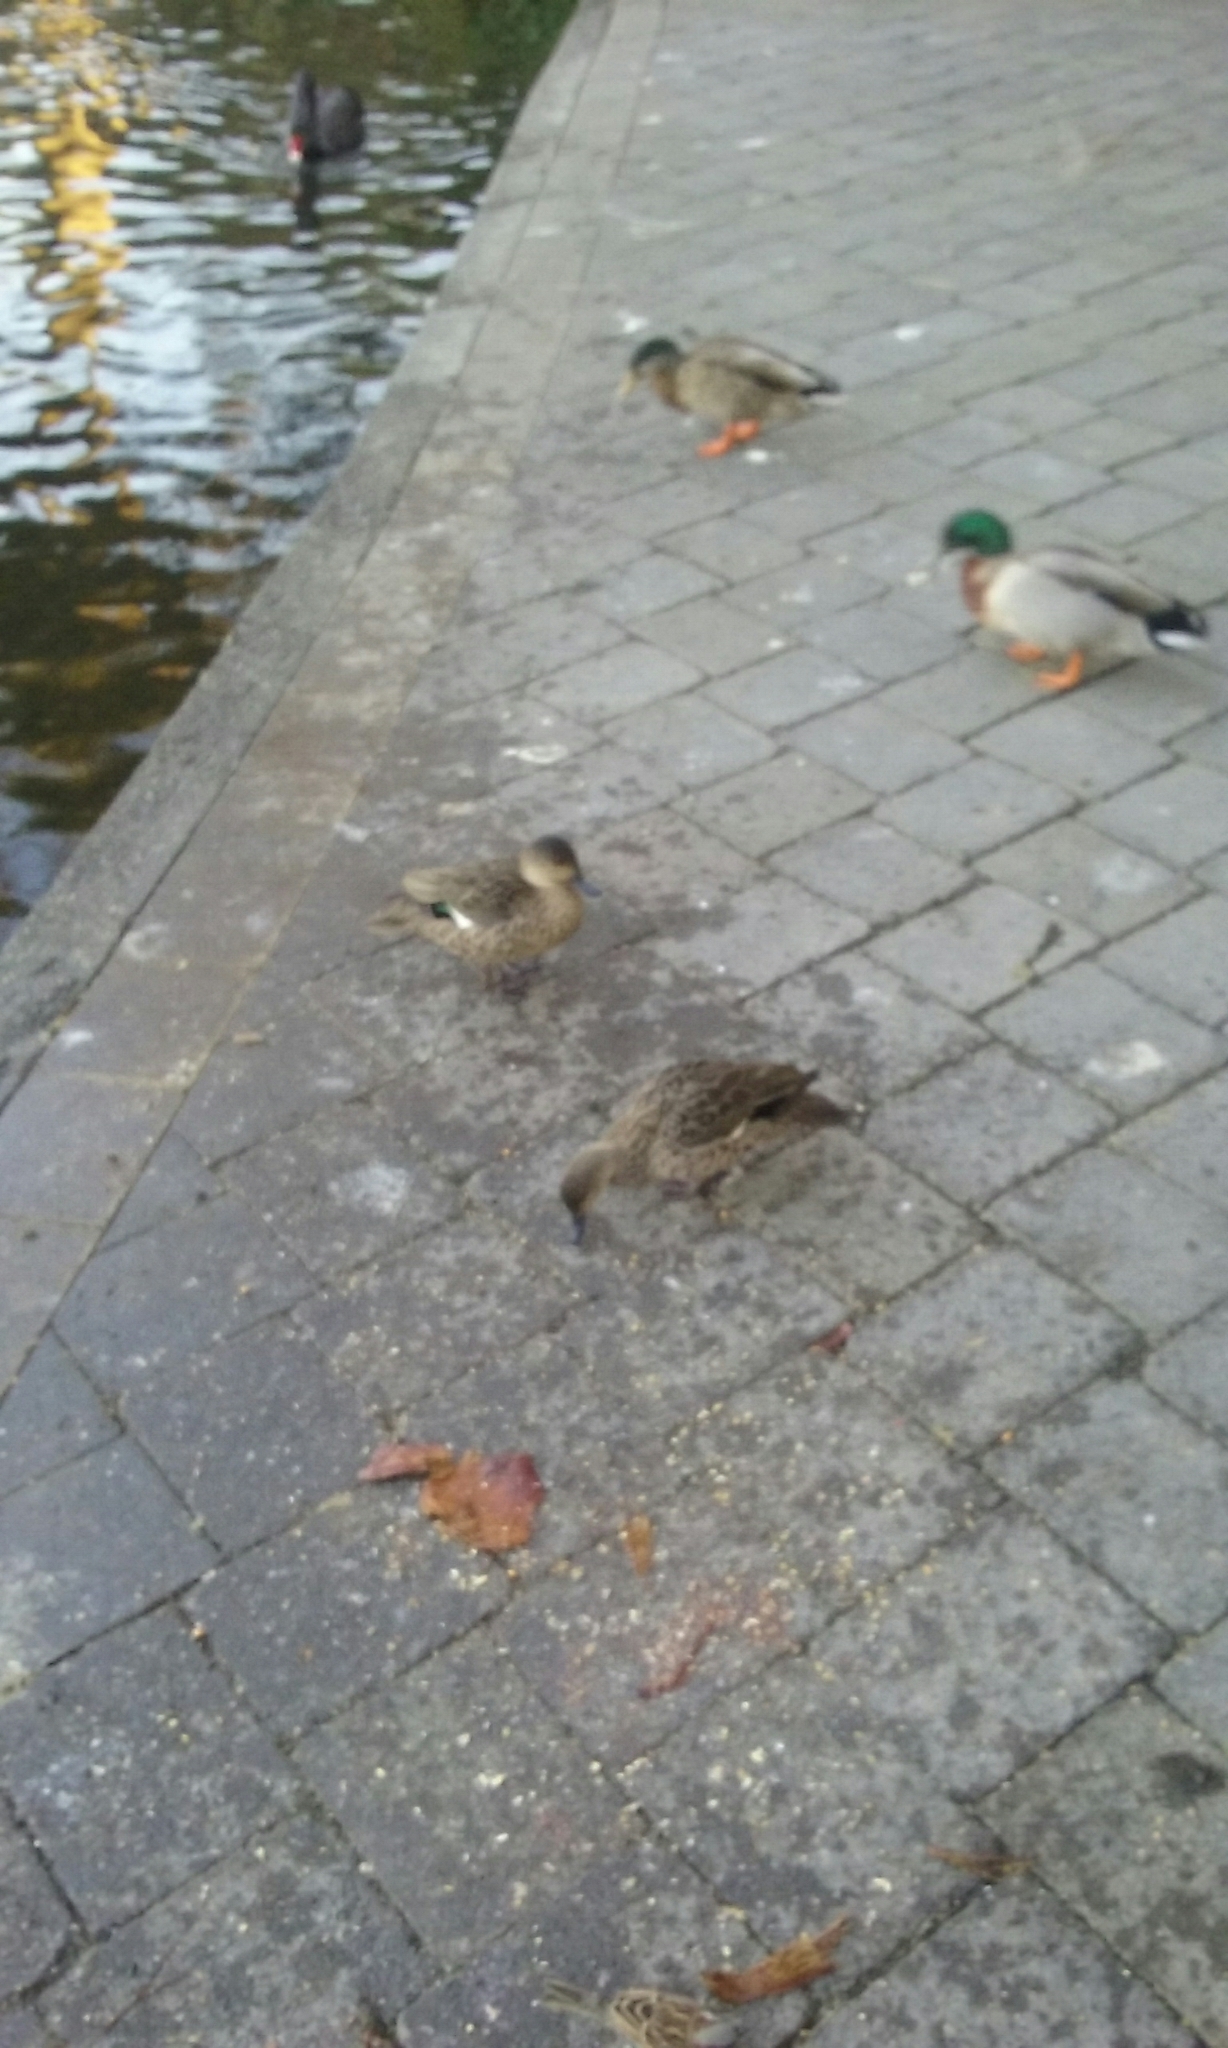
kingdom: Animalia
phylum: Chordata
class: Aves
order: Anseriformes
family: Anatidae
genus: Anas
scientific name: Anas gracilis
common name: Grey teal
